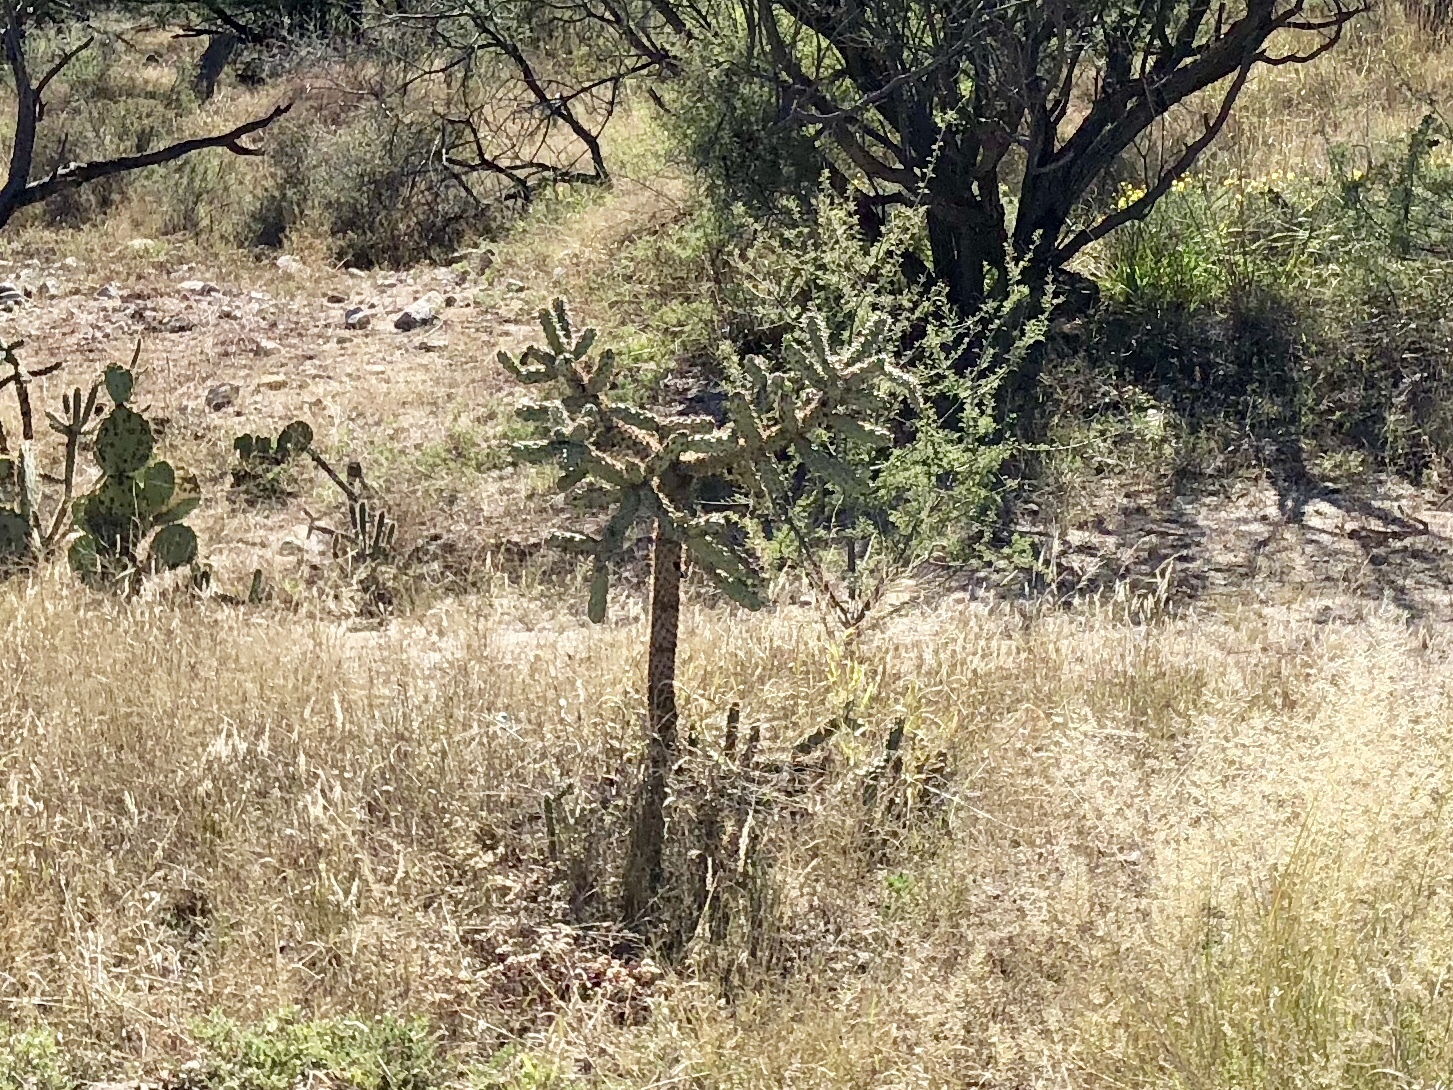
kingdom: Plantae
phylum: Tracheophyta
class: Magnoliopsida
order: Caryophyllales
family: Cactaceae
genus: Cylindropuntia
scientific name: Cylindropuntia fulgida
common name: Jumping cholla
